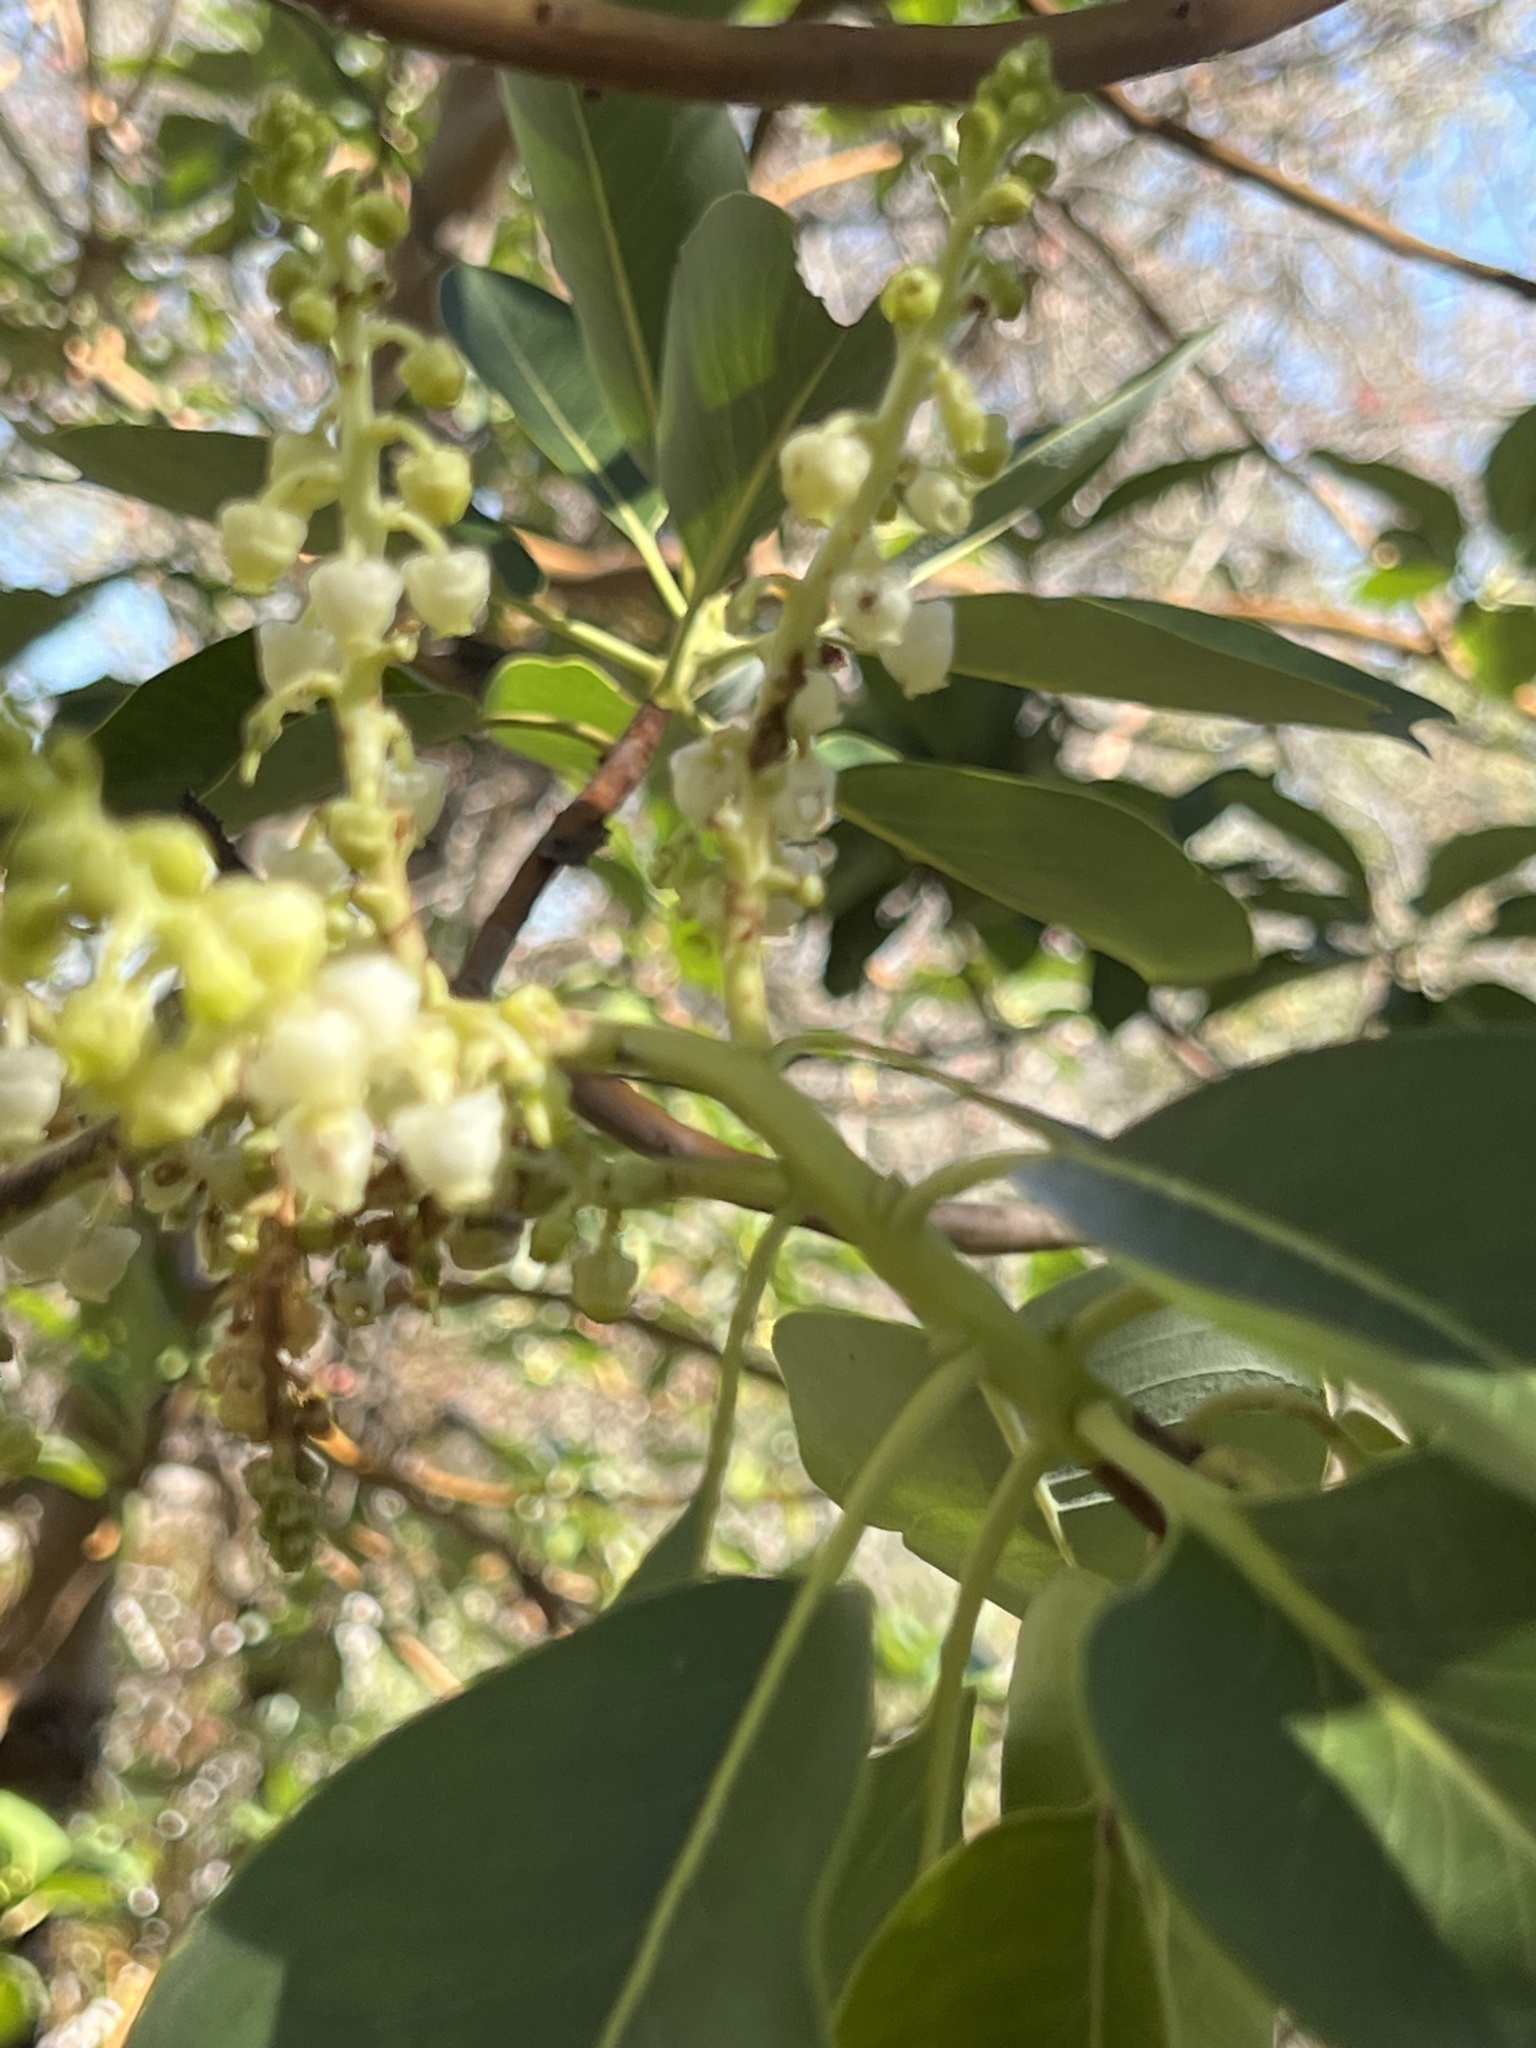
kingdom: Plantae
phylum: Tracheophyta
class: Magnoliopsida
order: Ericales
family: Ericaceae
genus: Arbutus
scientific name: Arbutus menziesii
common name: Pacific madrone
